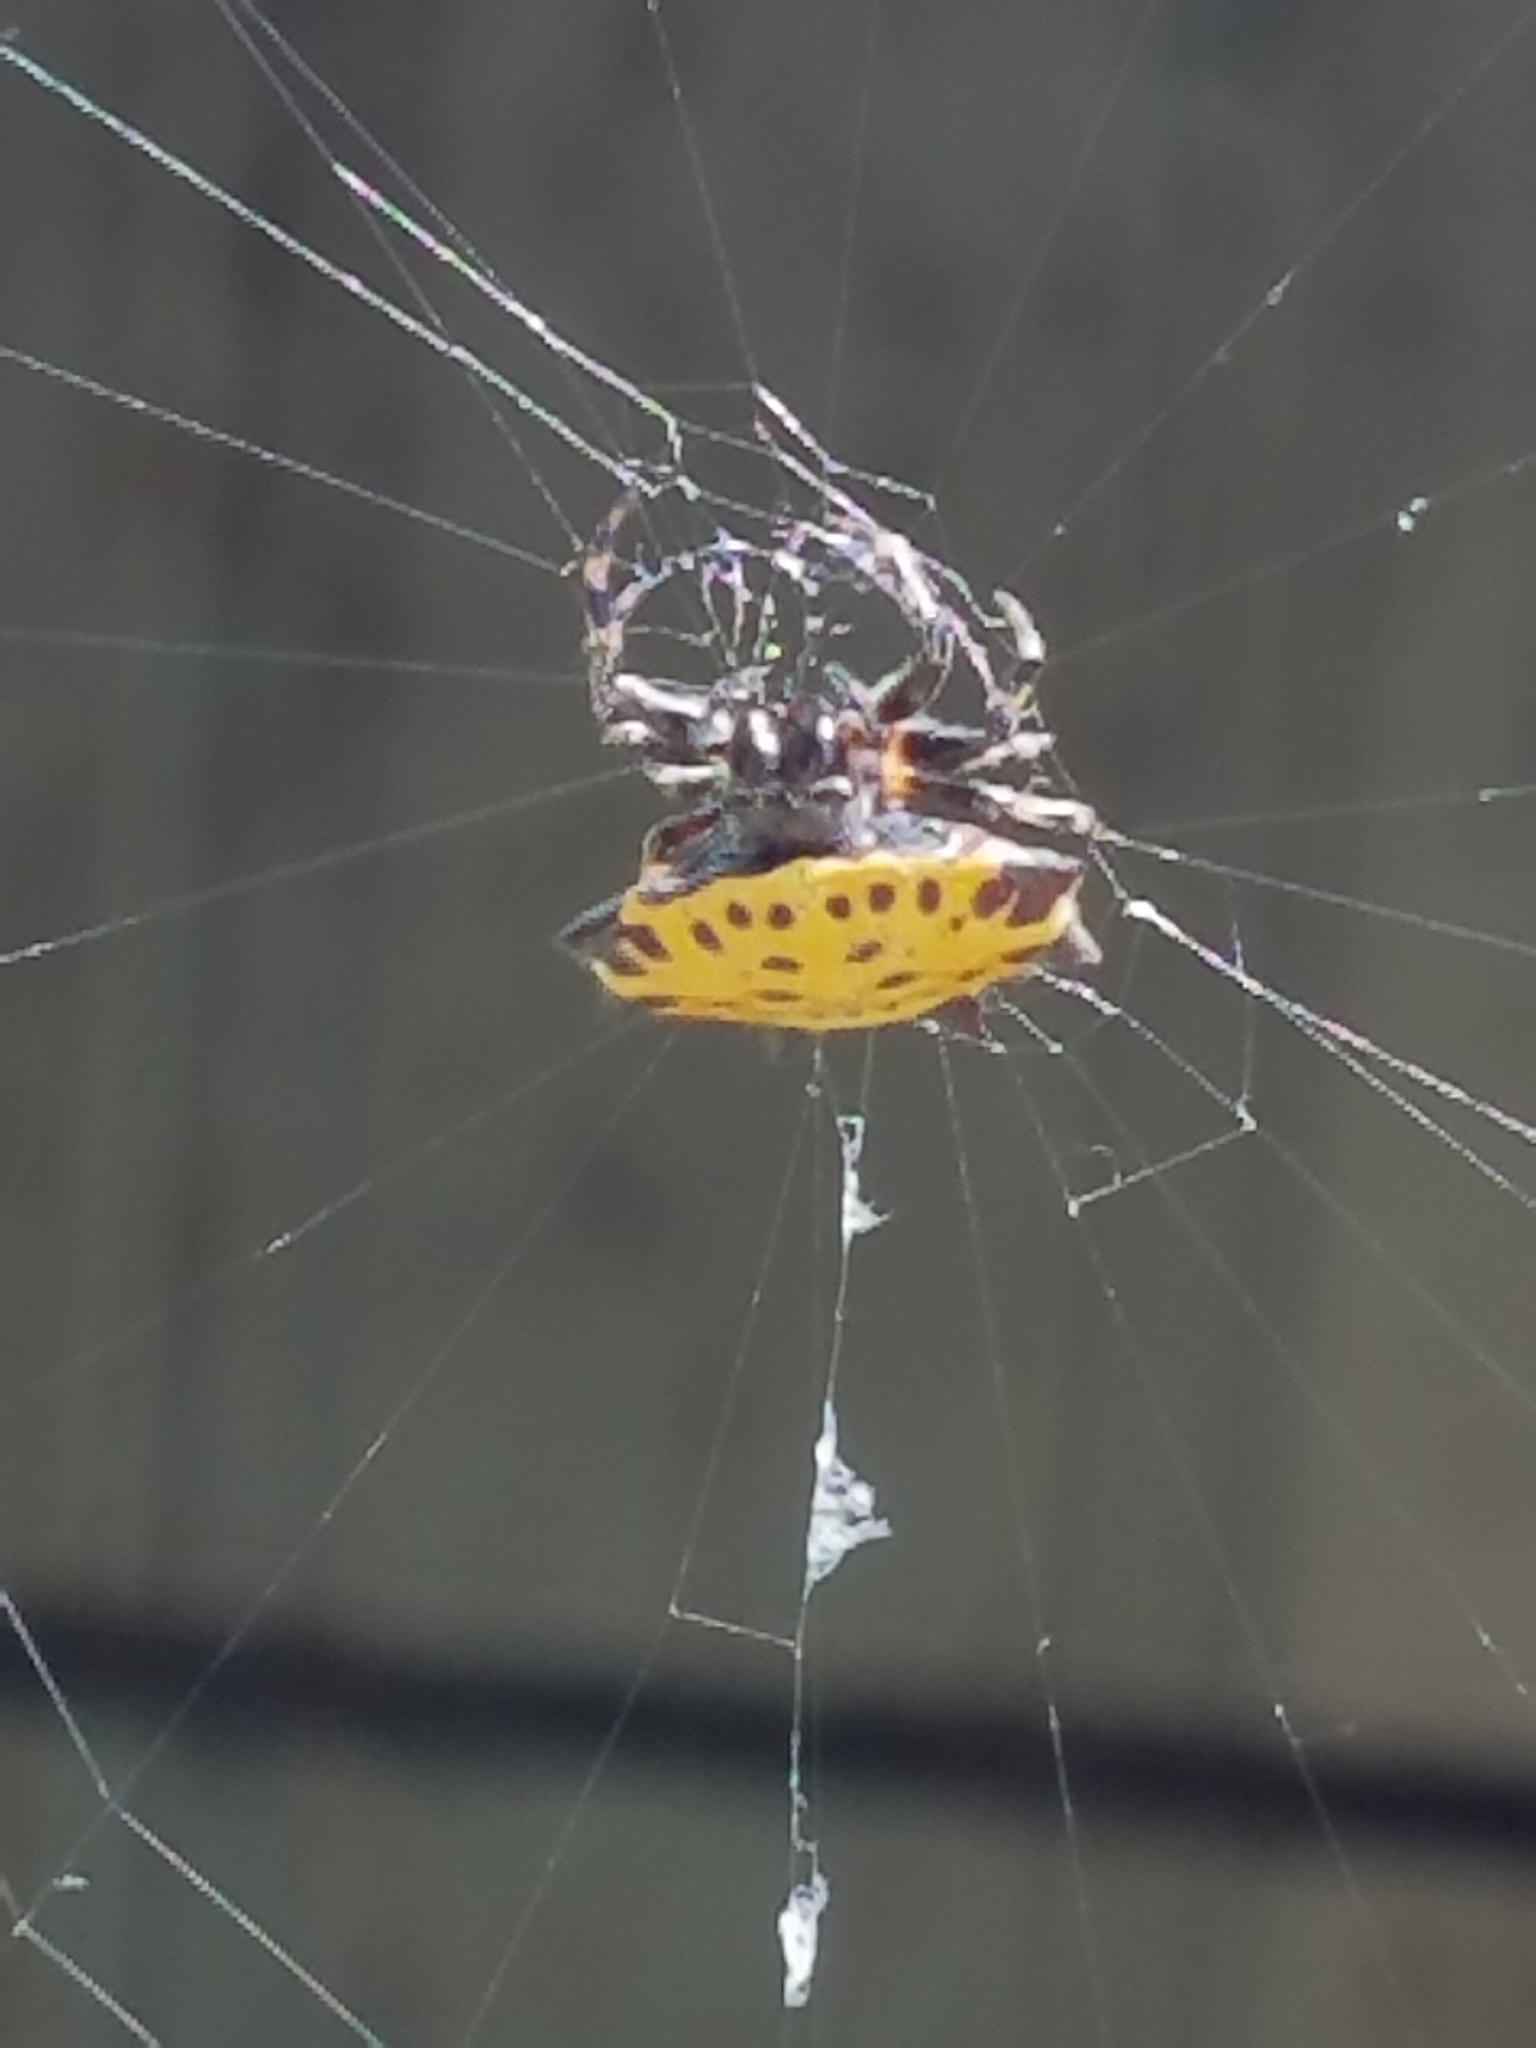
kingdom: Animalia
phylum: Arthropoda
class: Arachnida
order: Araneae
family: Araneidae
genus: Gasteracantha
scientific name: Gasteracantha cancriformis
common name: Orb weavers
